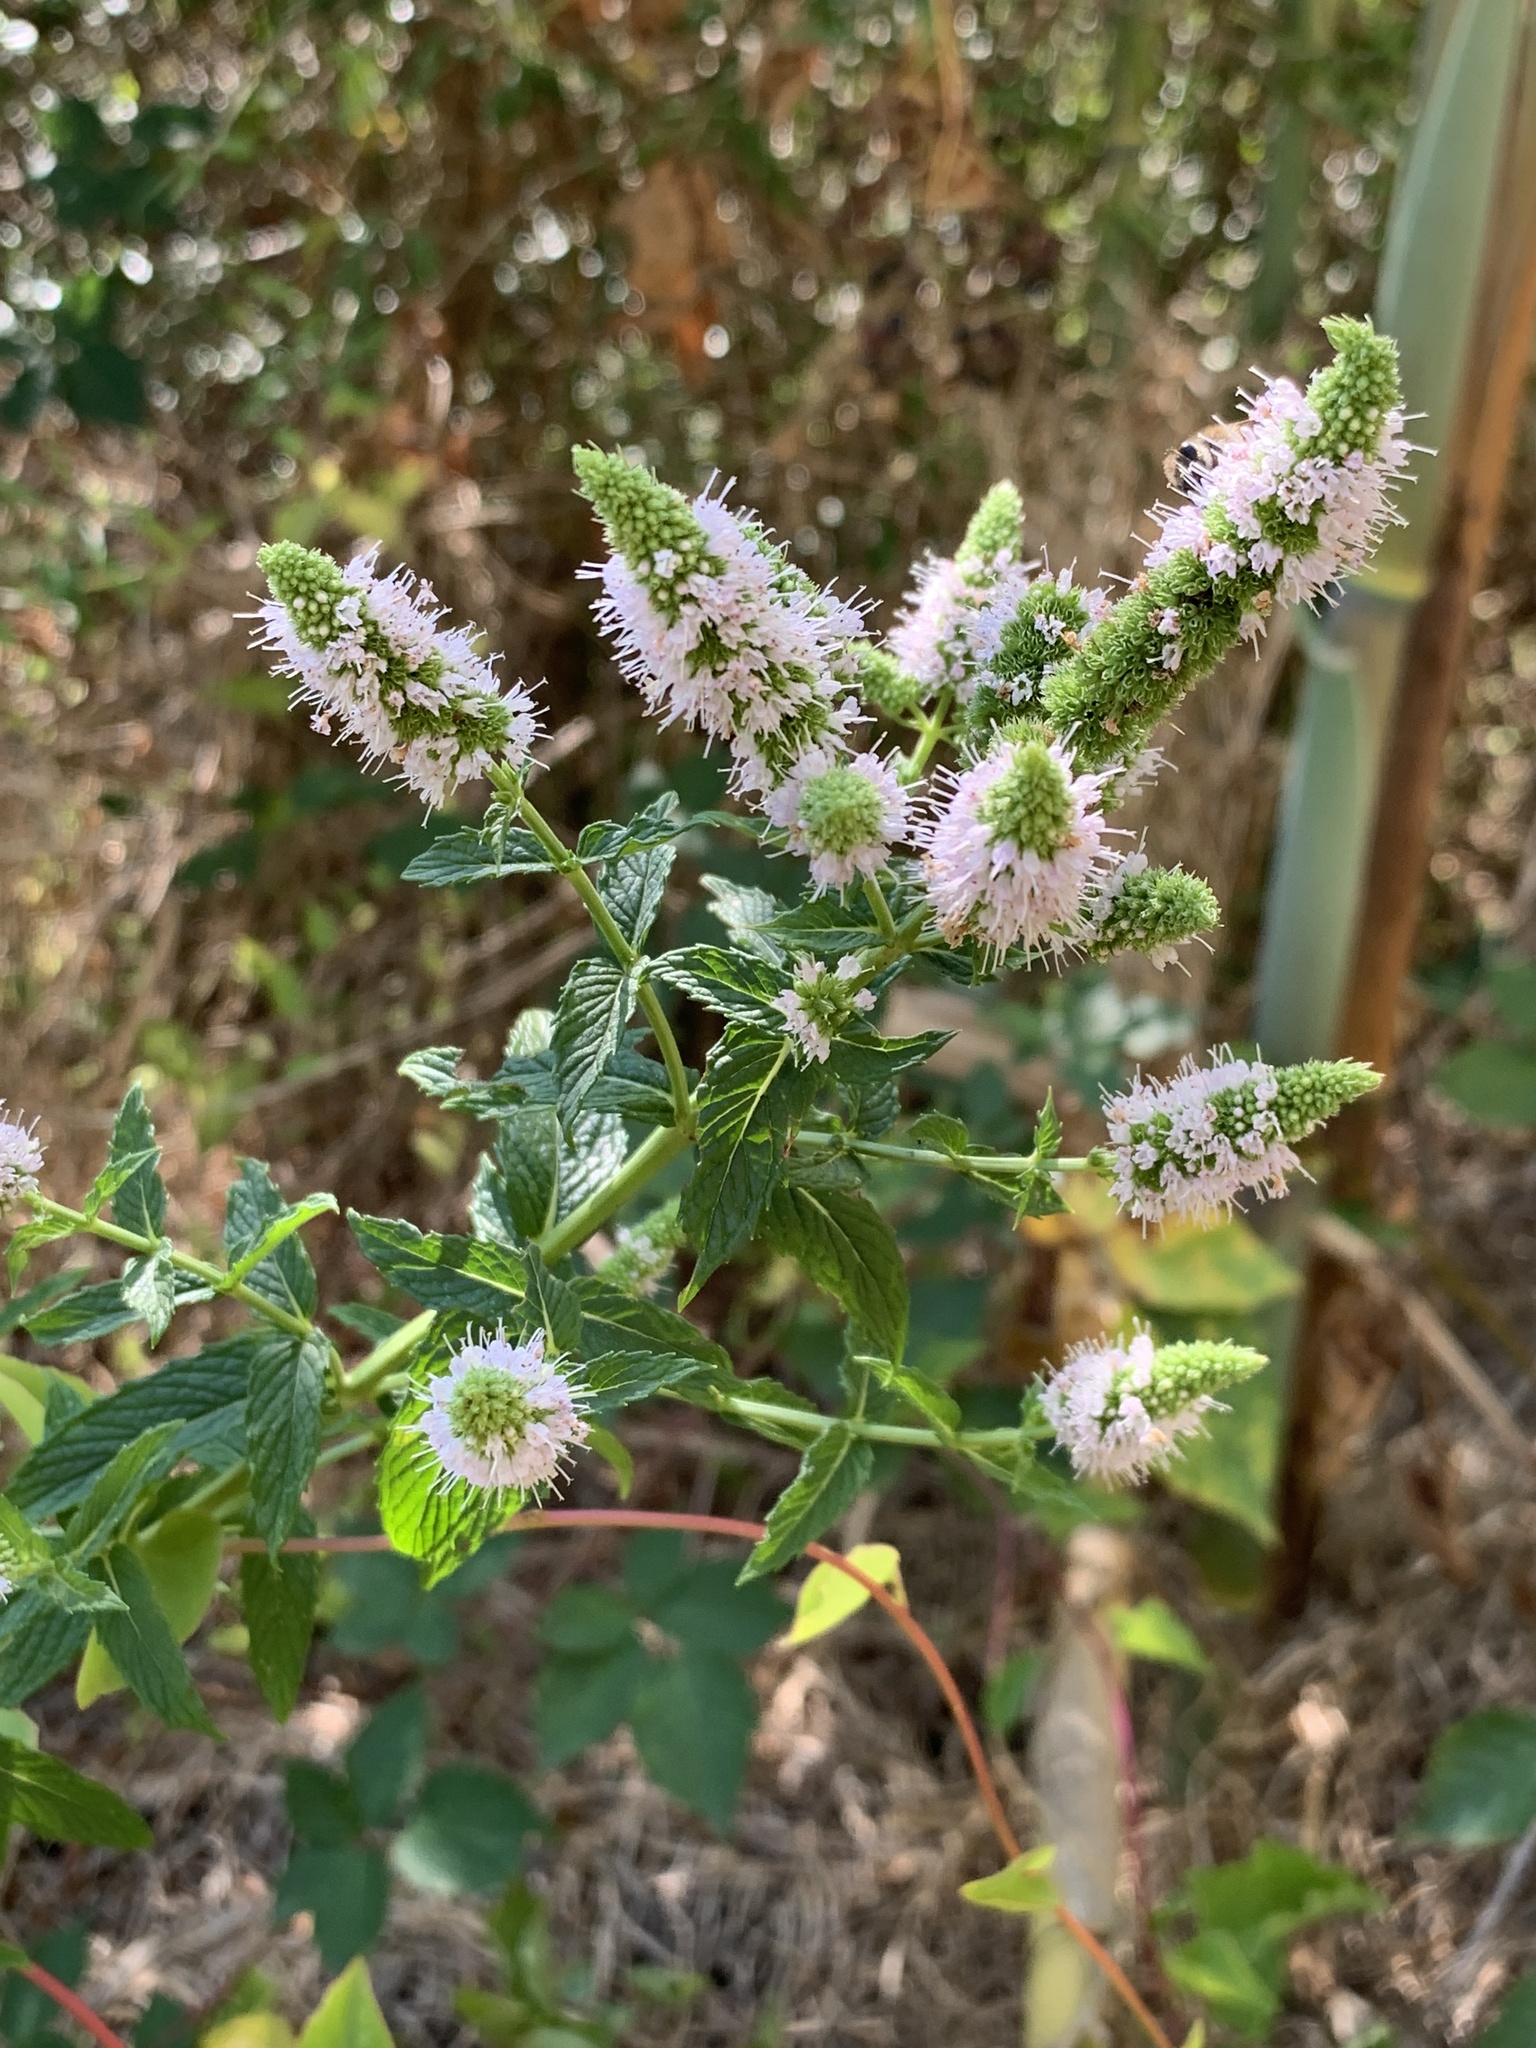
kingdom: Plantae
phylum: Tracheophyta
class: Magnoliopsida
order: Lamiales
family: Lamiaceae
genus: Mentha
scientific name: Mentha longifolia
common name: Horse mint
